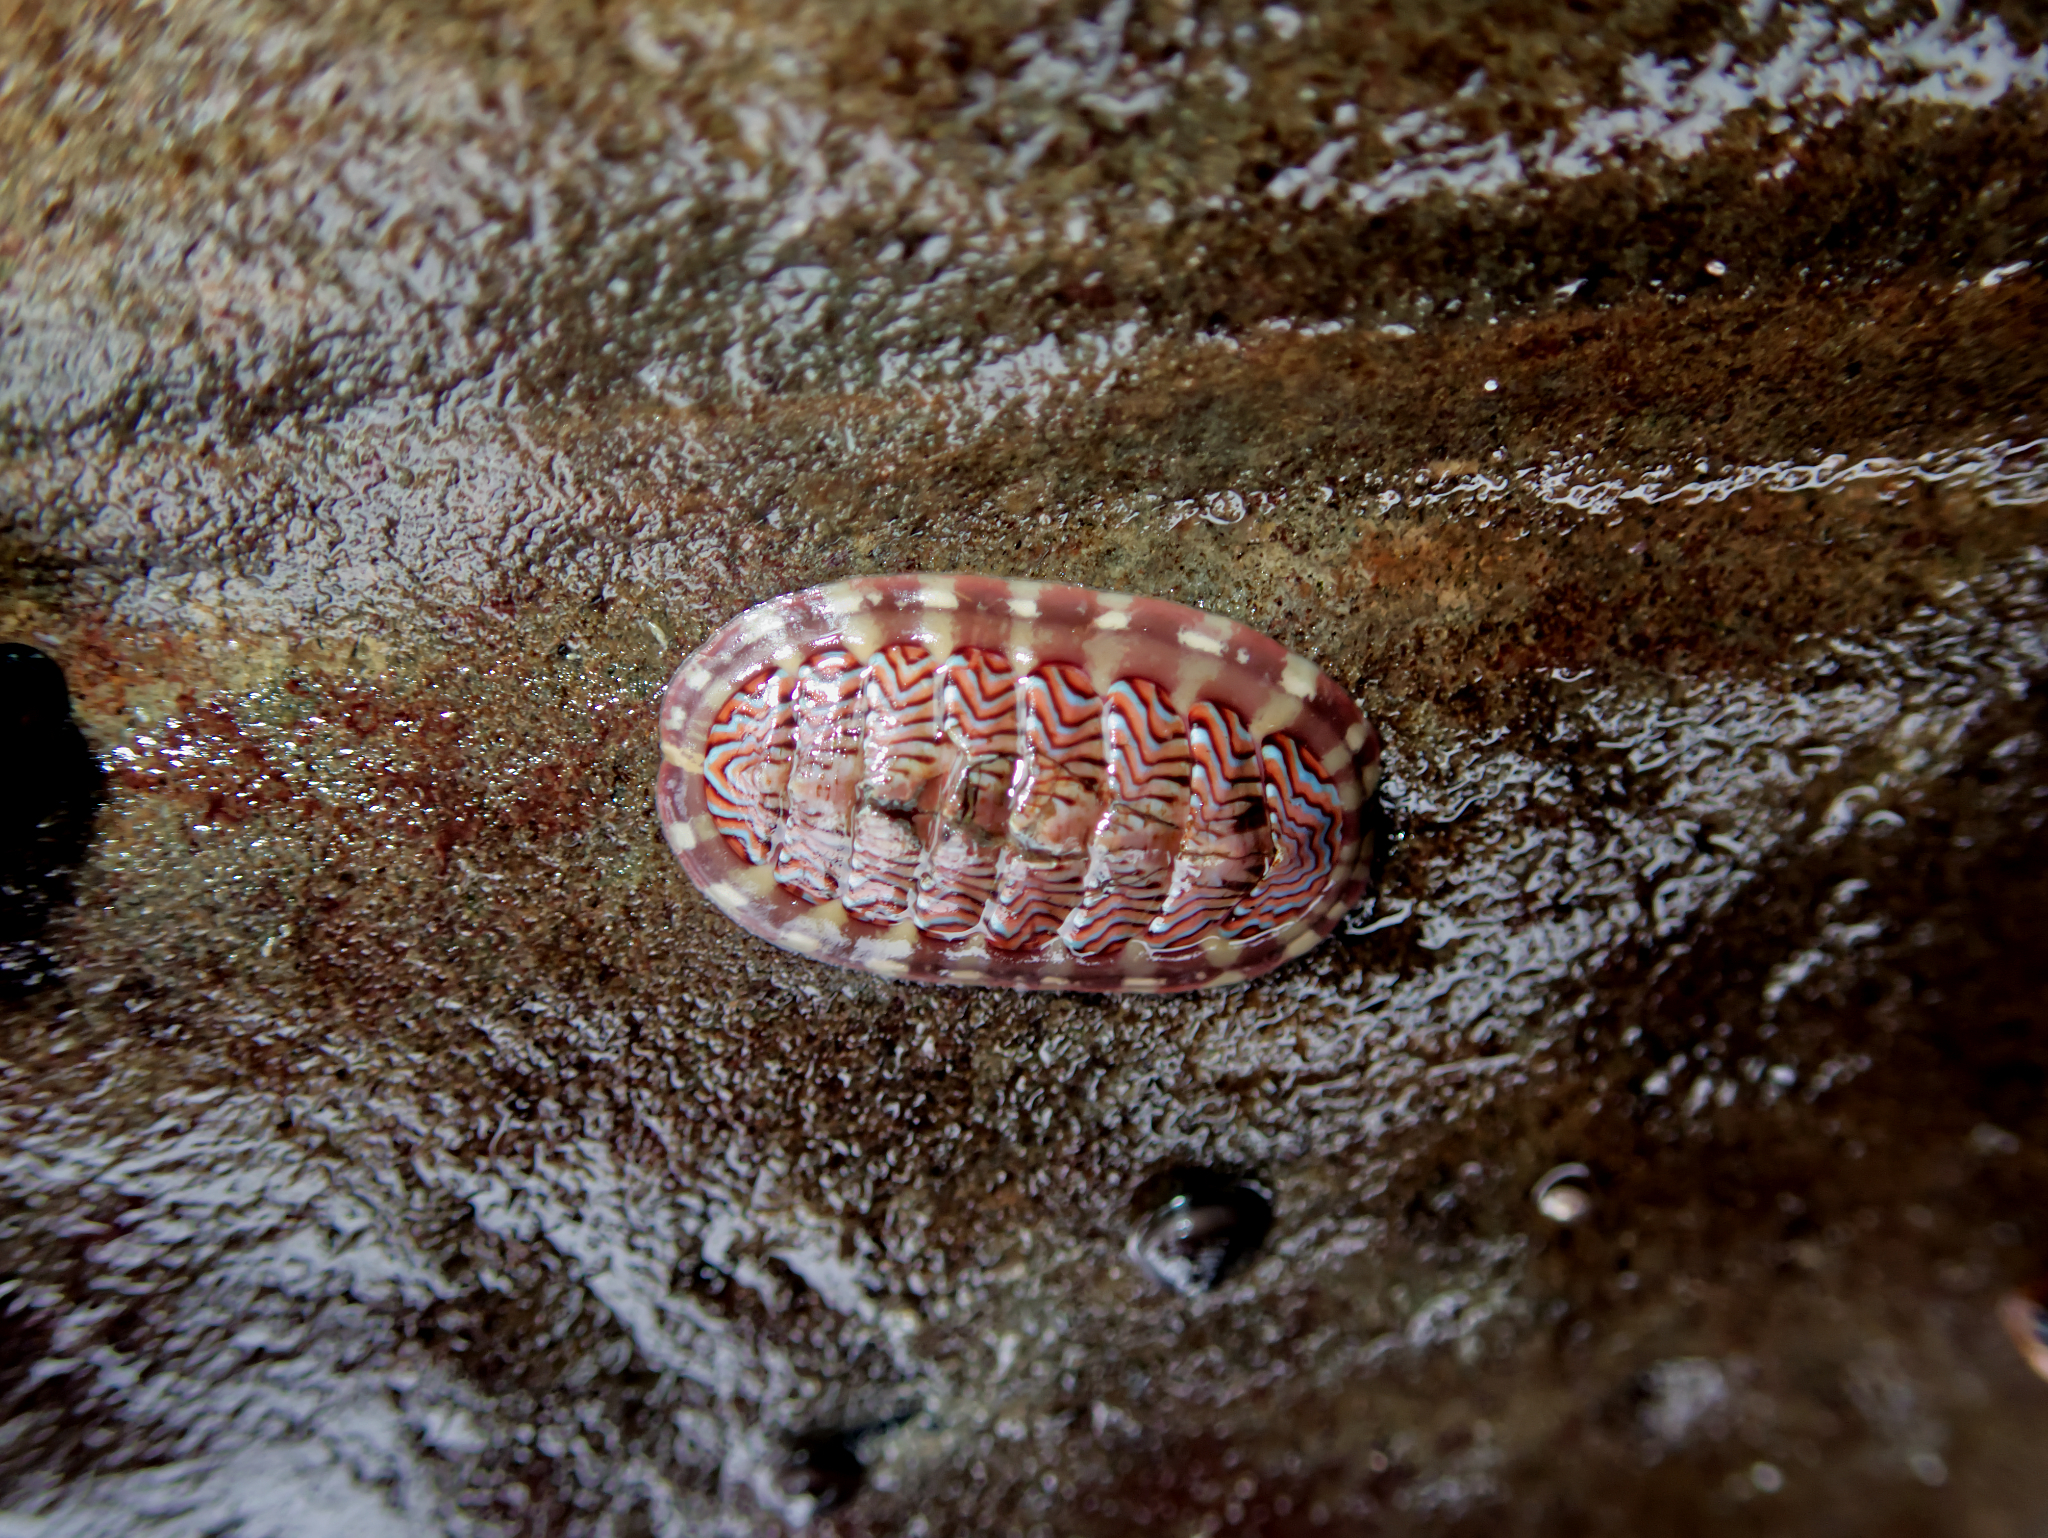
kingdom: Animalia
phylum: Mollusca
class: Polyplacophora
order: Chitonida
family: Tonicellidae
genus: Tonicella
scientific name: Tonicella lokii
